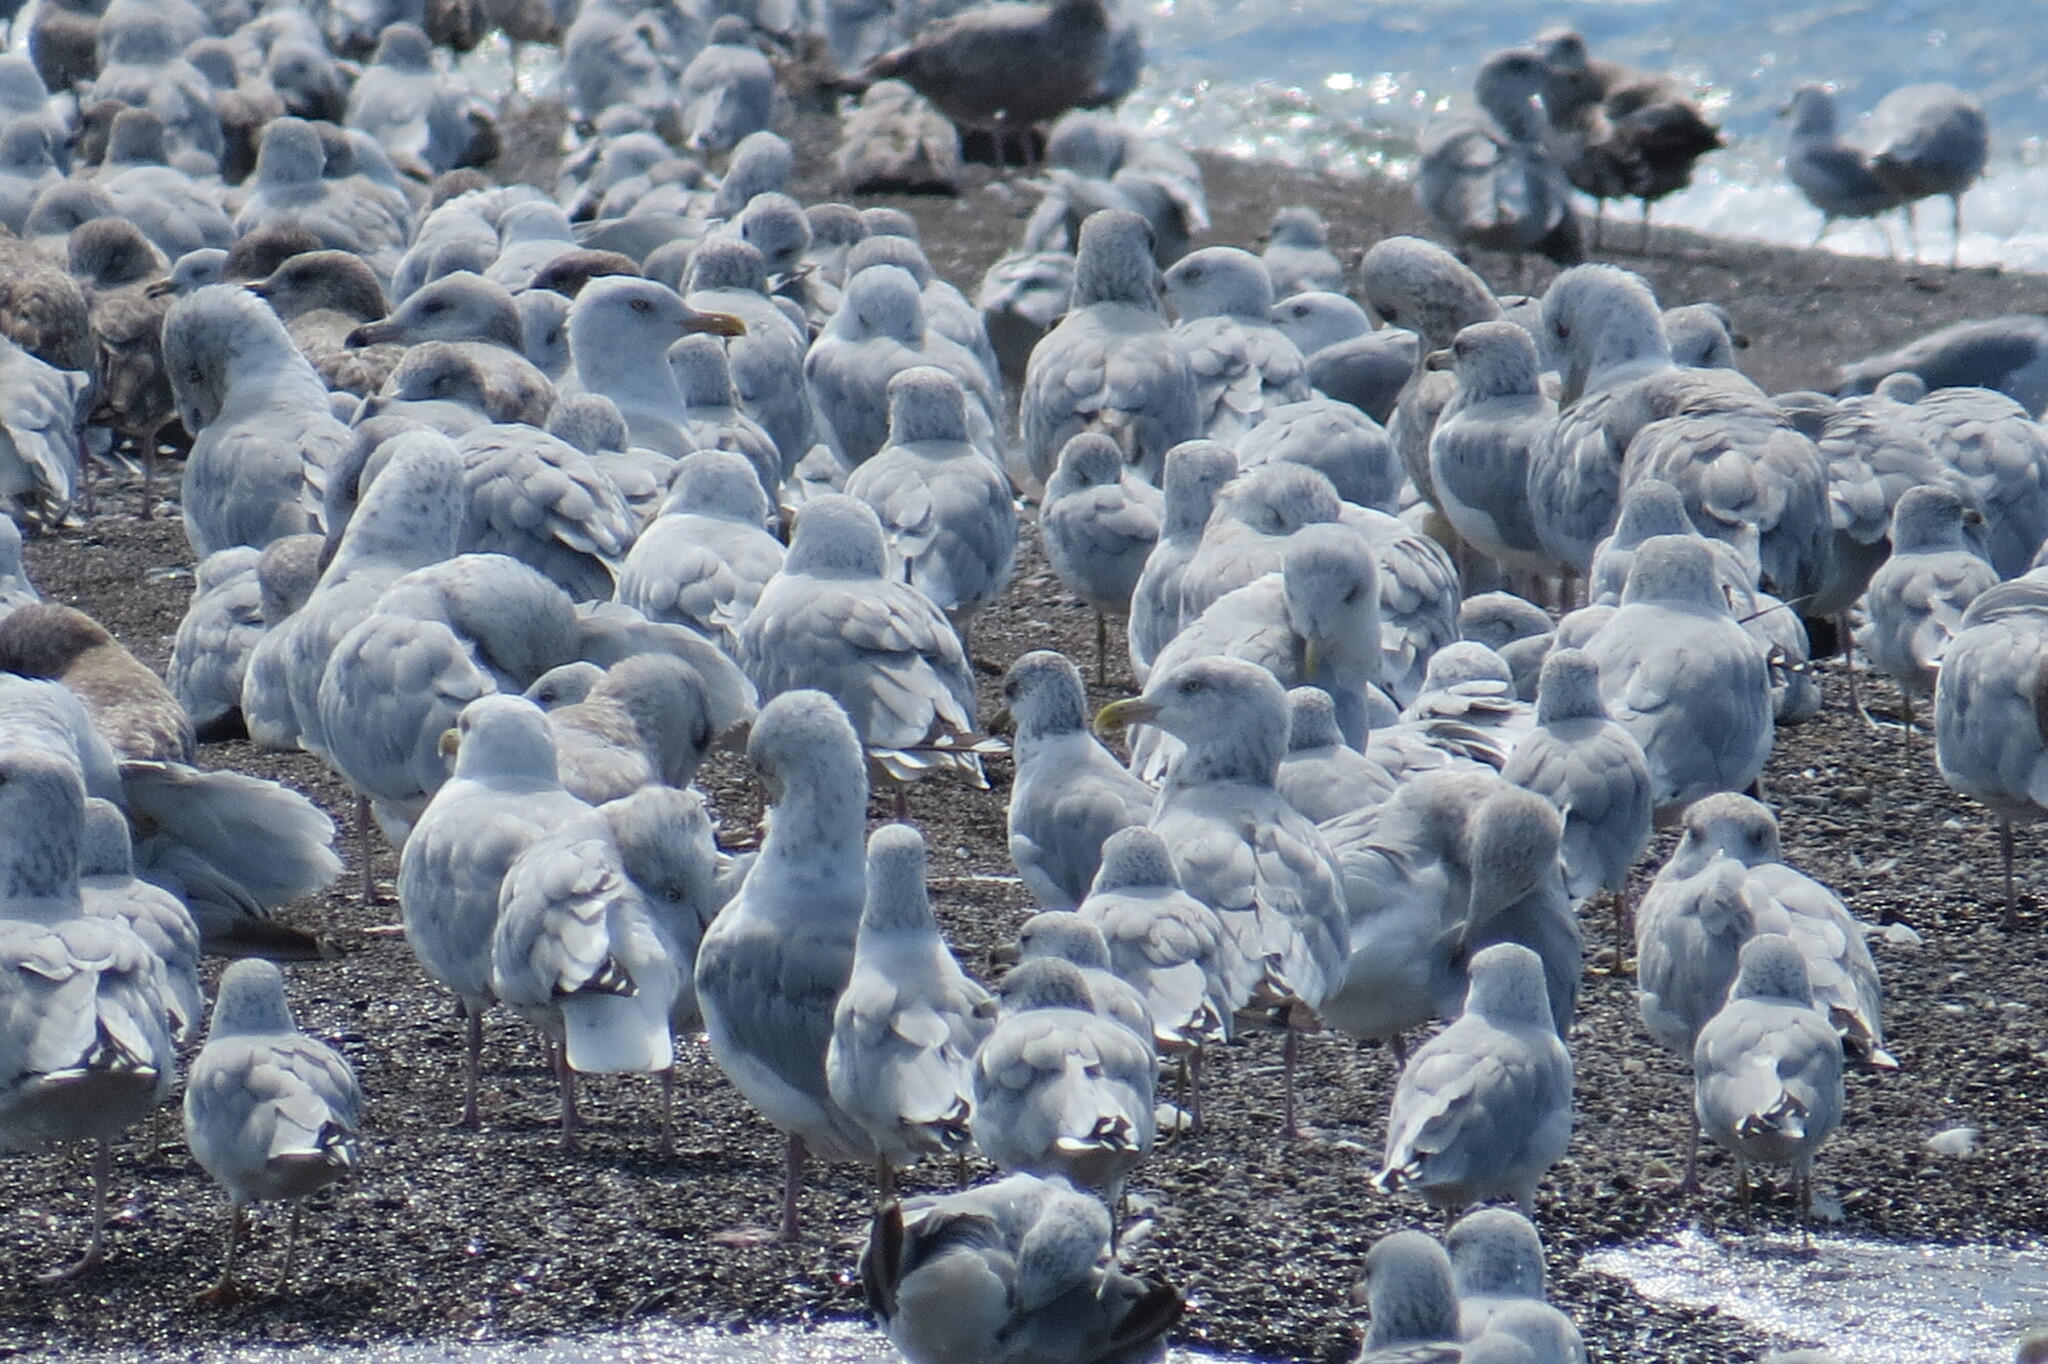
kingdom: Animalia
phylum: Chordata
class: Aves
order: Charadriiformes
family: Laridae
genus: Larus
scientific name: Larus delawarensis
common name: Ring-billed gull
